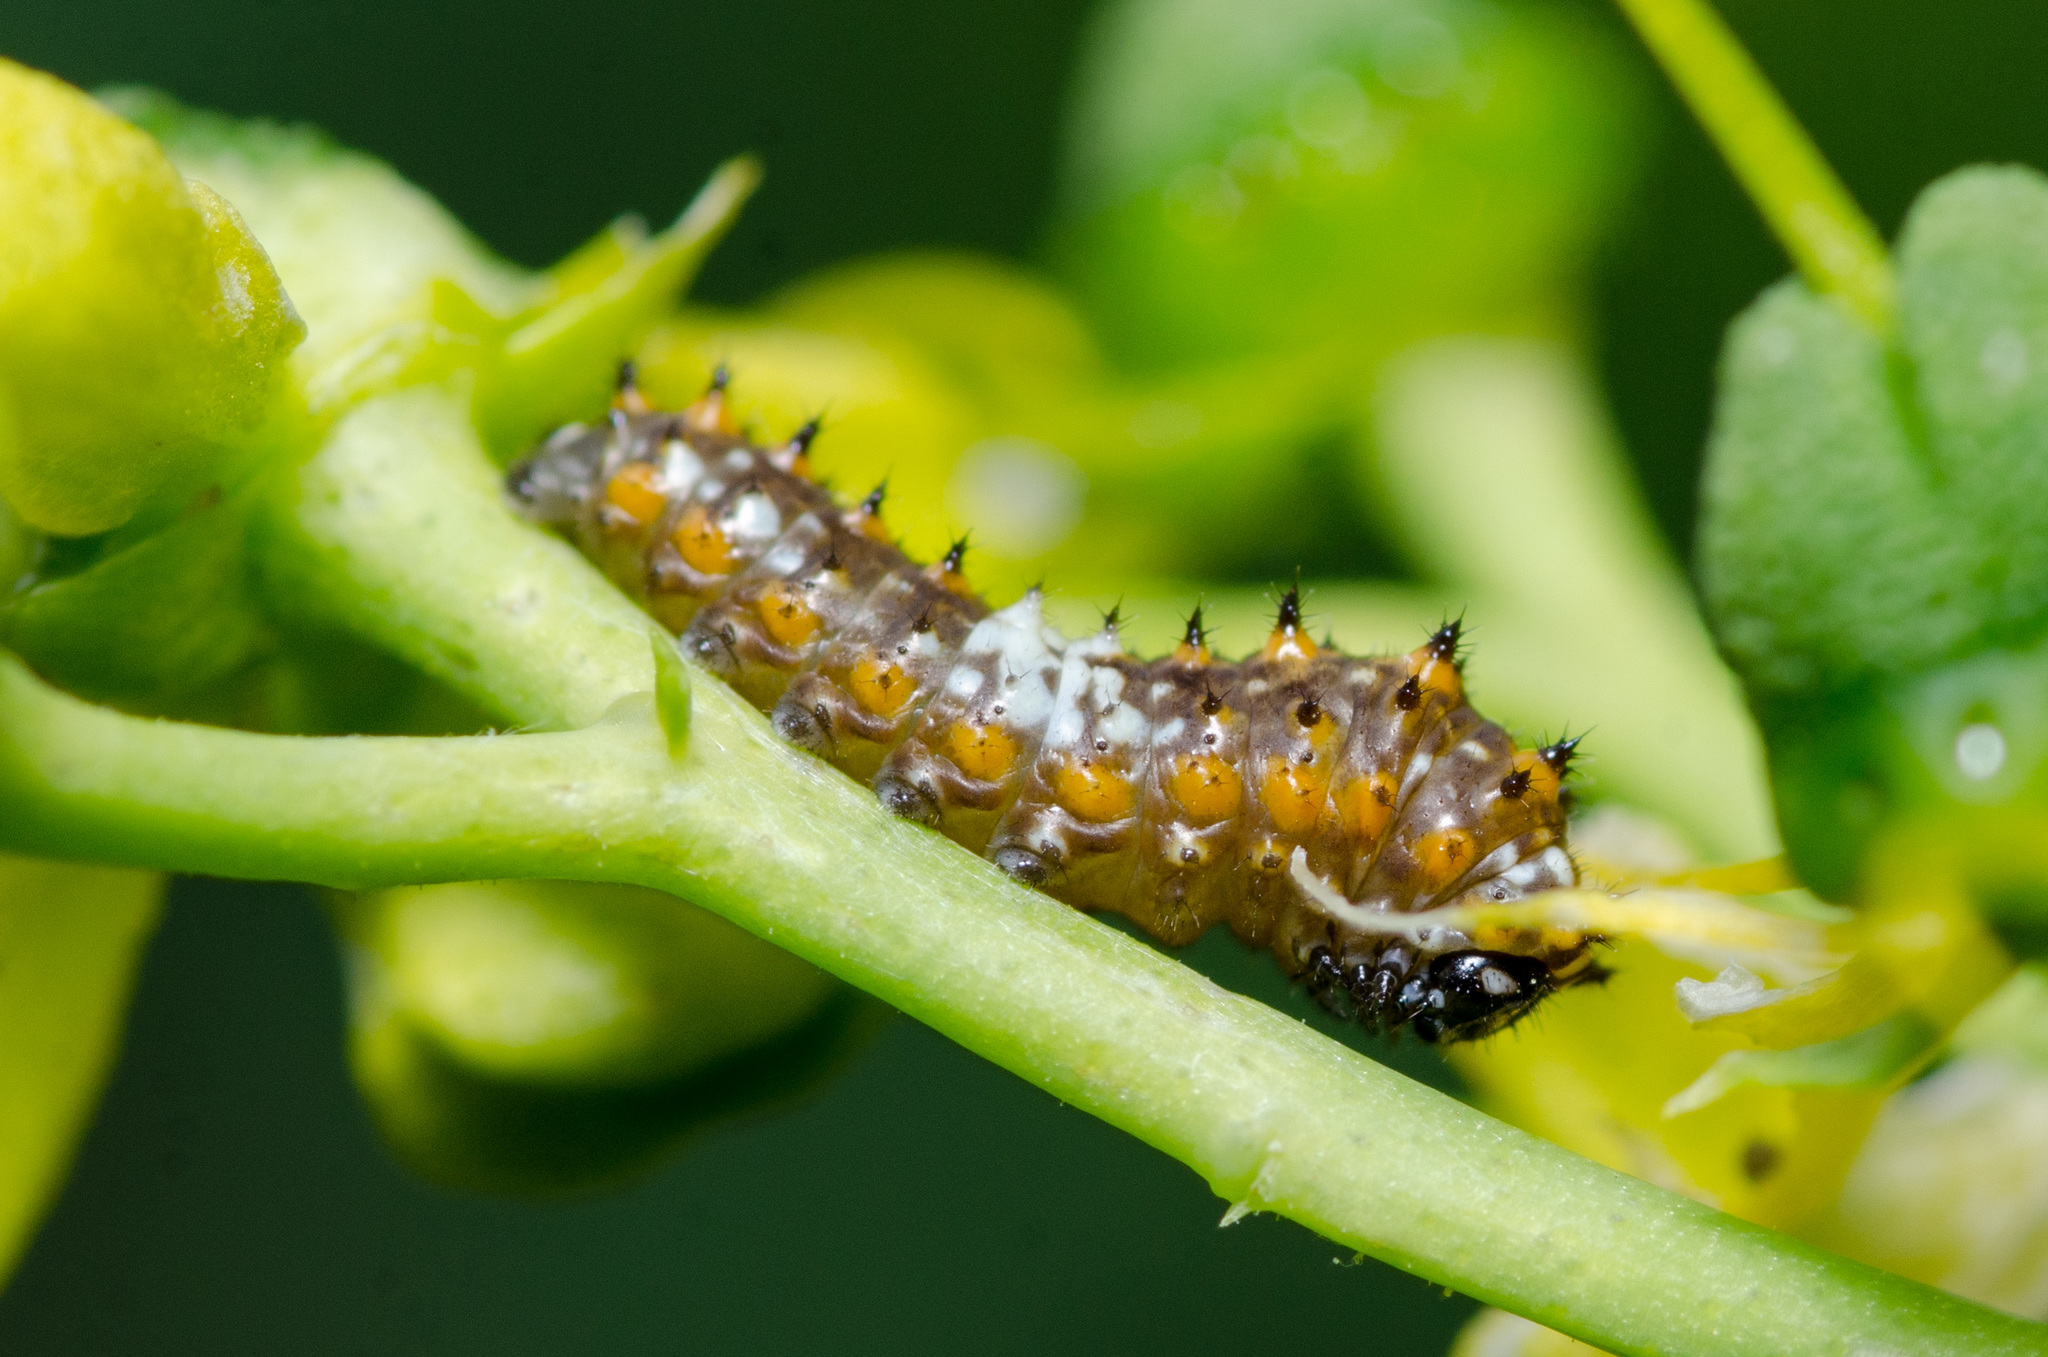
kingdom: Animalia
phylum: Arthropoda
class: Insecta
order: Lepidoptera
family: Papilionidae
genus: Papilio
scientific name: Papilio polyxenes
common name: Black swallowtail
